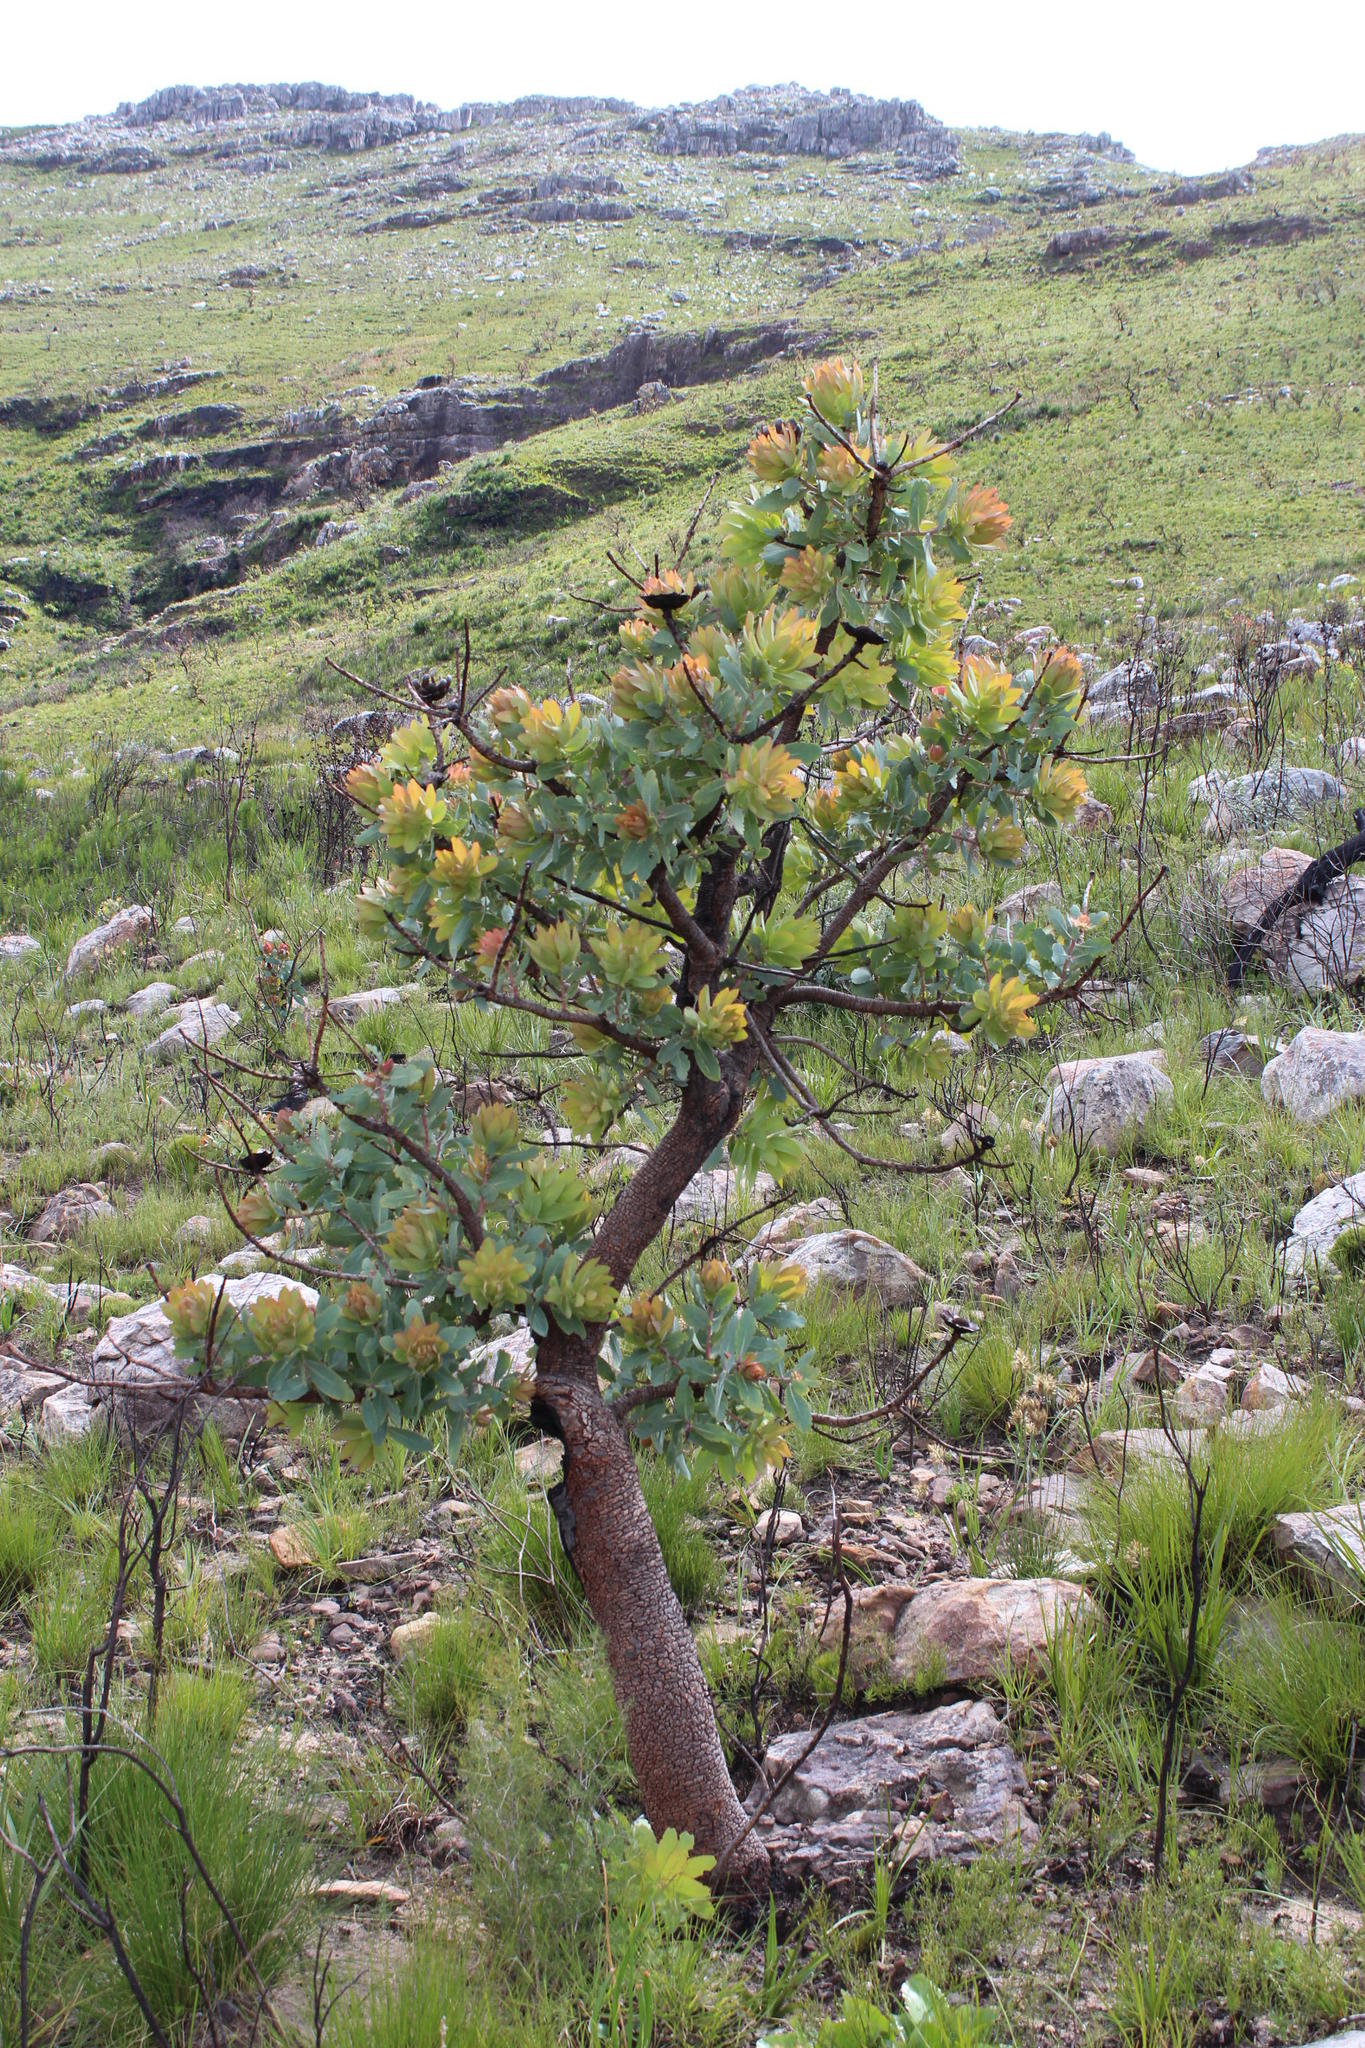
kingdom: Plantae
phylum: Tracheophyta
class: Magnoliopsida
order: Proteales
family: Proteaceae
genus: Protea
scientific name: Protea nitida
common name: Tree protea
